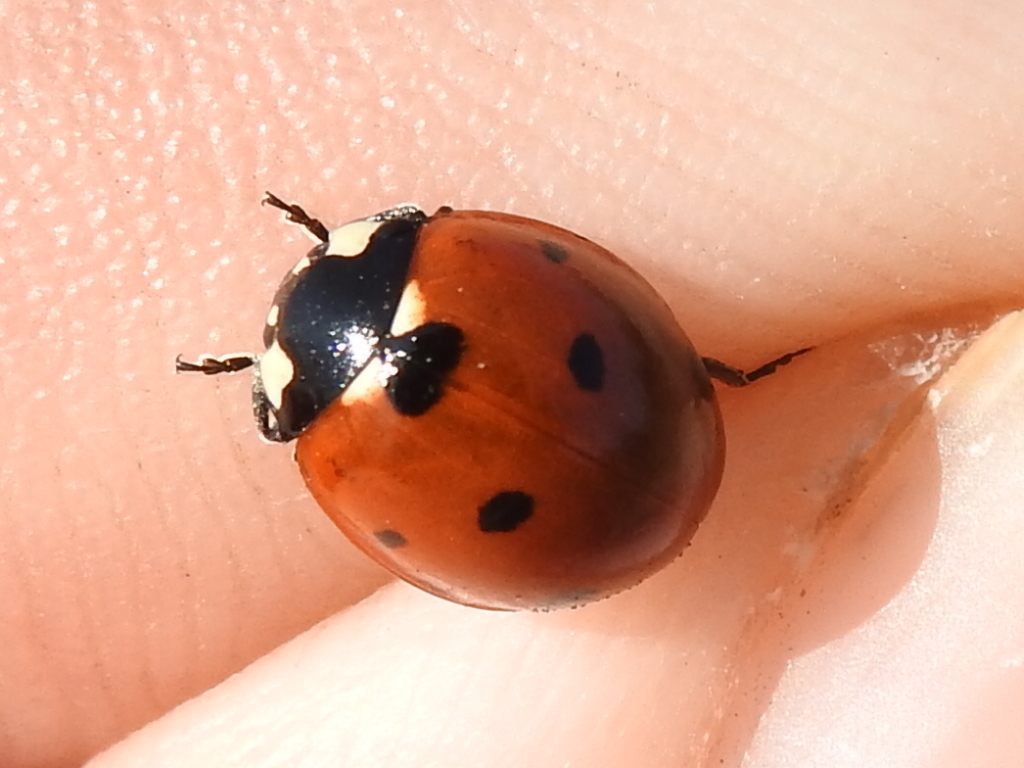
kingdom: Animalia
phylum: Arthropoda
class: Insecta
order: Coleoptera
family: Coccinellidae
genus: Coccinella
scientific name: Coccinella septempunctata
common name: Sevenspotted lady beetle
